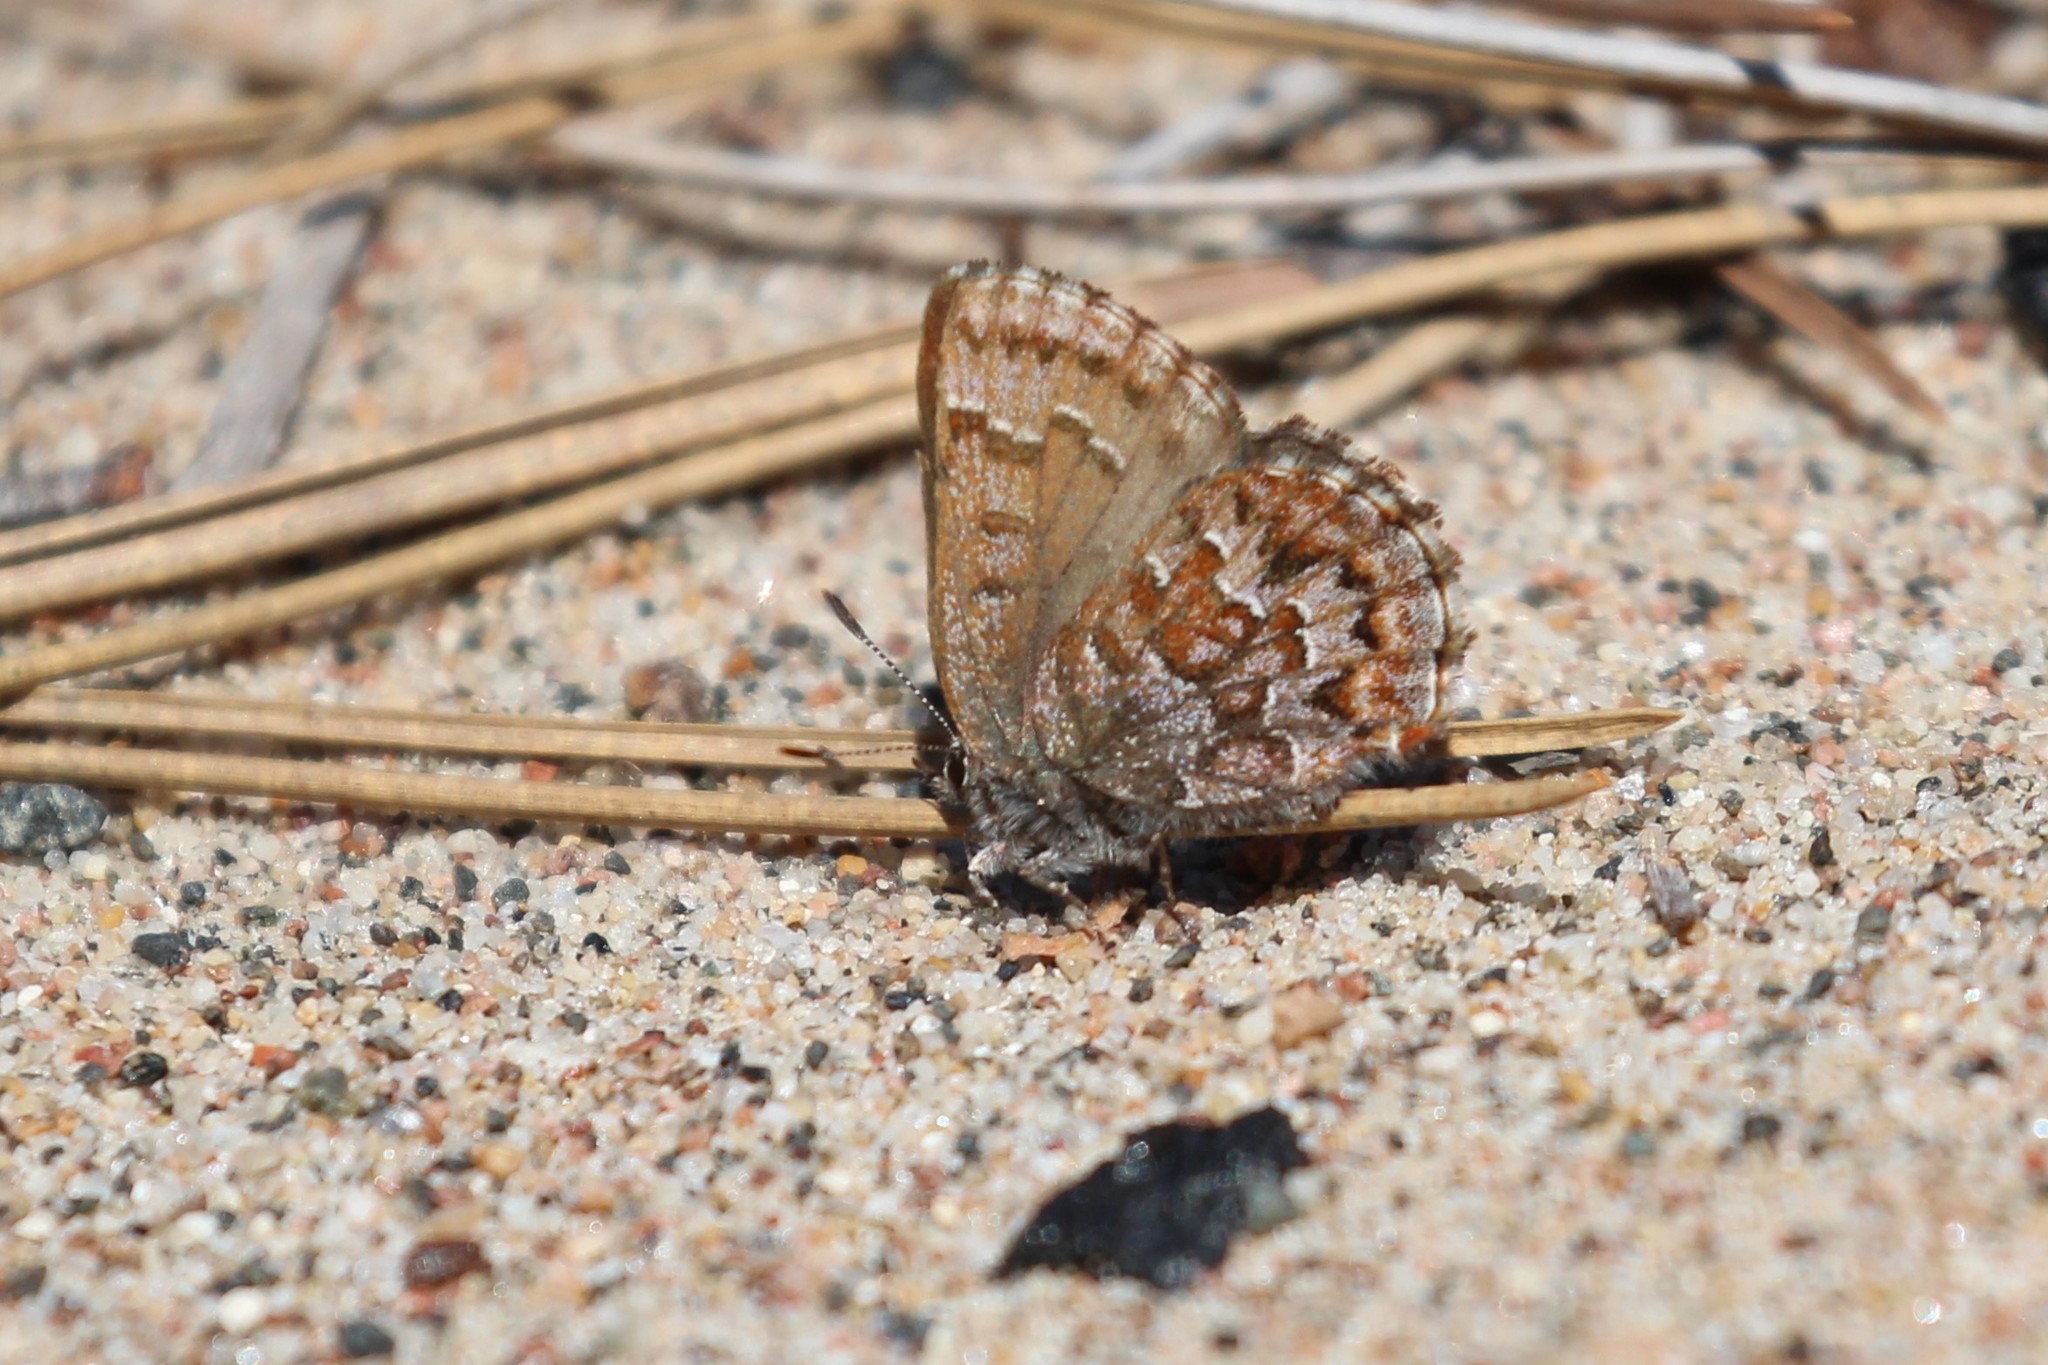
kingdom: Animalia
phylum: Arthropoda
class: Insecta
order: Lepidoptera
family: Lycaenidae
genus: Incisalia
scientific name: Incisalia niphon
